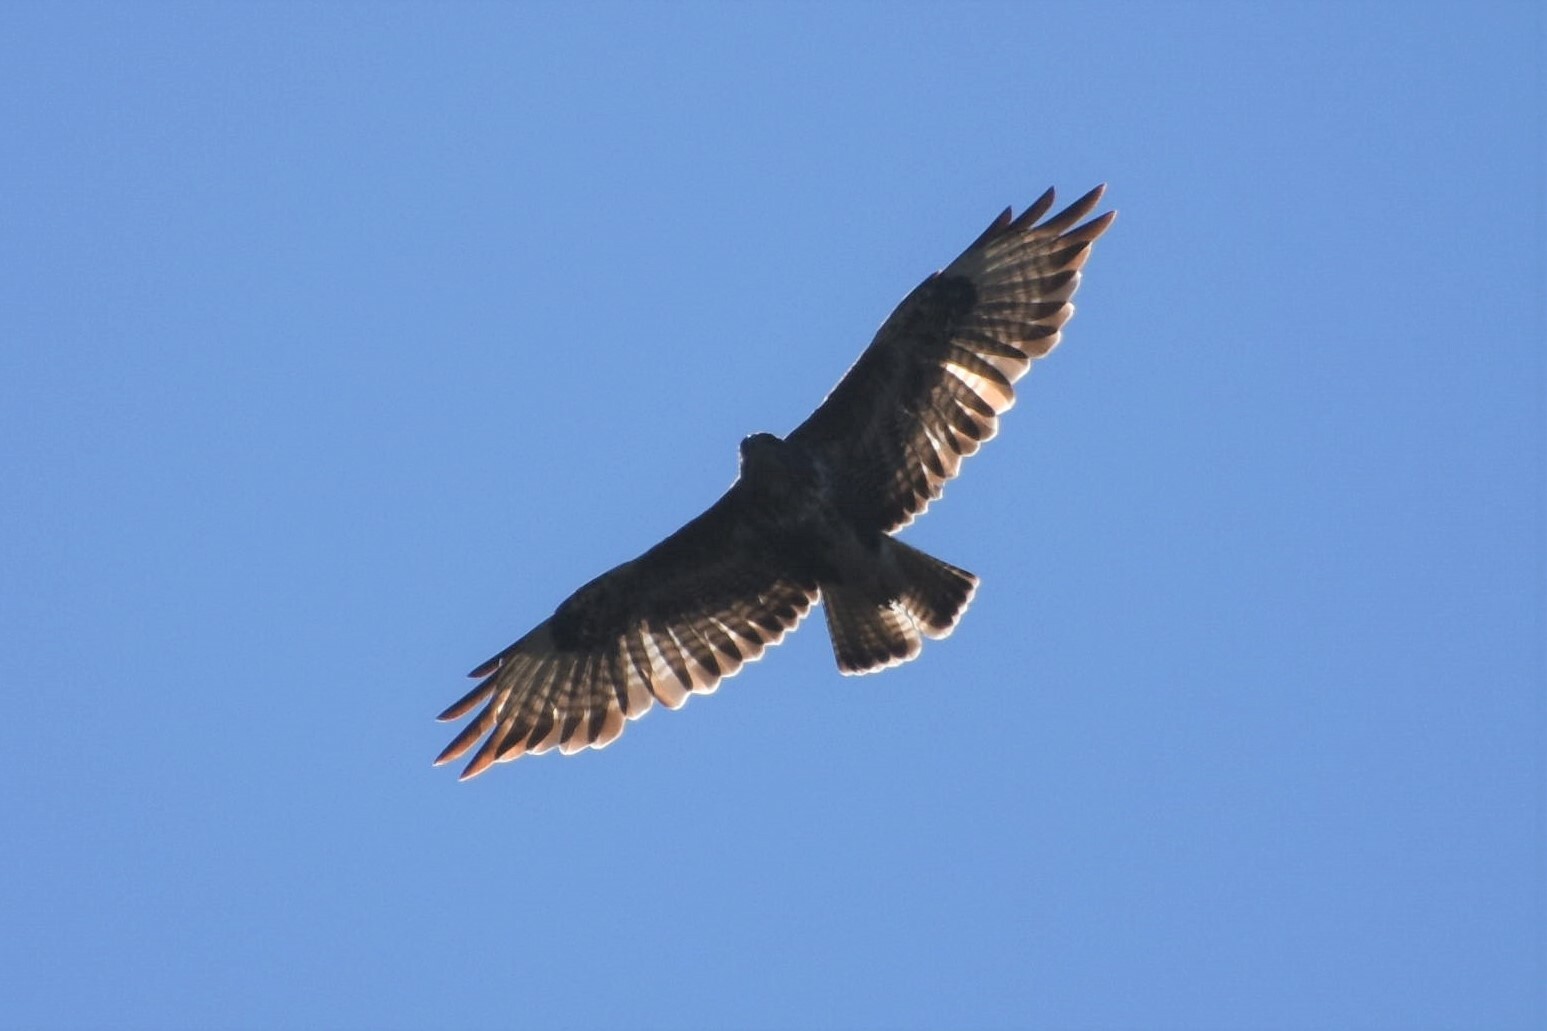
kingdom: Animalia
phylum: Chordata
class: Aves
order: Accipitriformes
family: Accipitridae
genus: Buteo
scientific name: Buteo buteo
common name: Common buzzard
